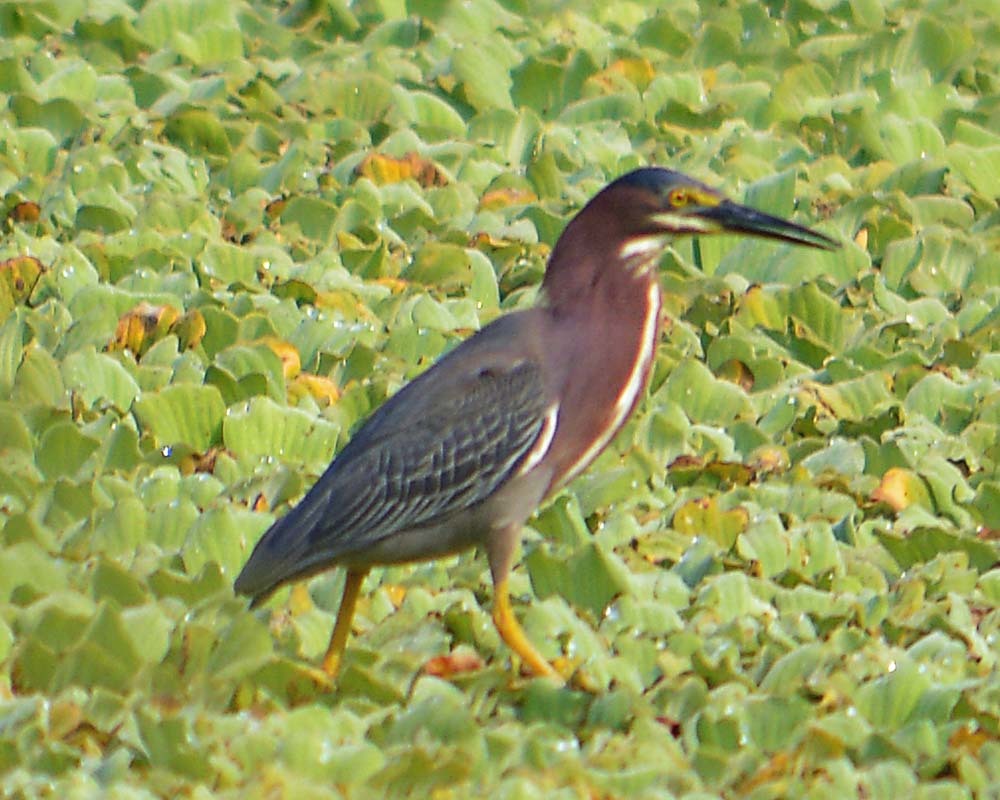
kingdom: Animalia
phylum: Chordata
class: Aves
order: Pelecaniformes
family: Ardeidae
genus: Butorides
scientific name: Butorides virescens
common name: Green heron
